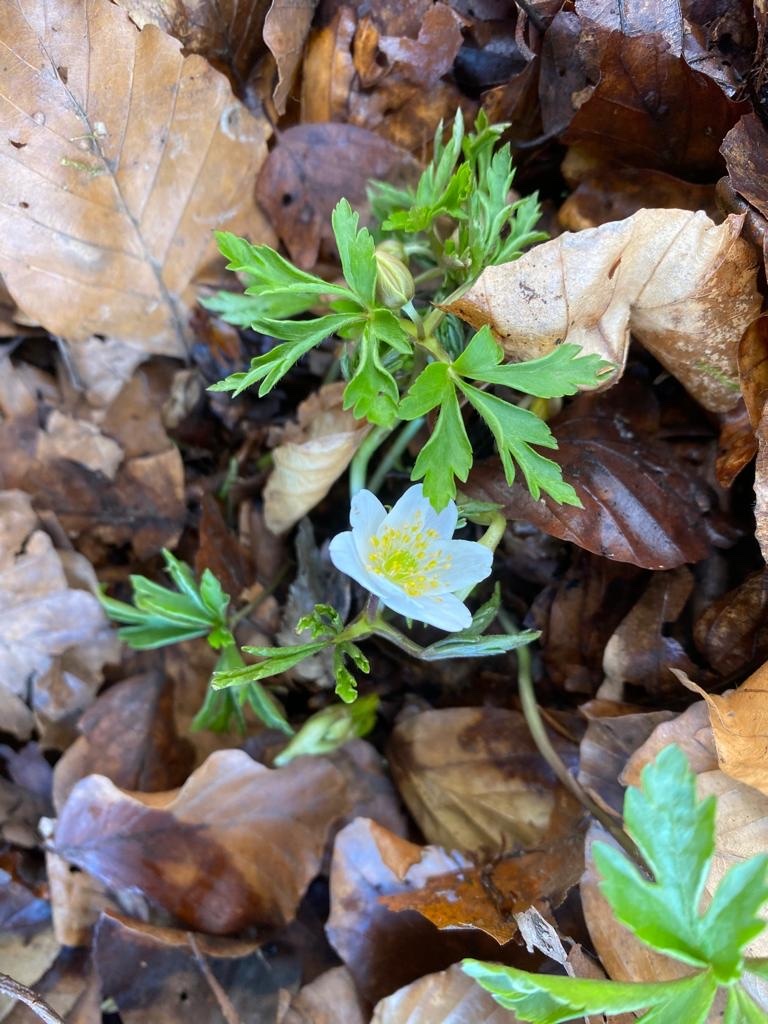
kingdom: Plantae
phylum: Tracheophyta
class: Magnoliopsida
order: Ranunculales
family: Ranunculaceae
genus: Anemone
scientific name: Anemone nemorosa
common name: Wood anemone
